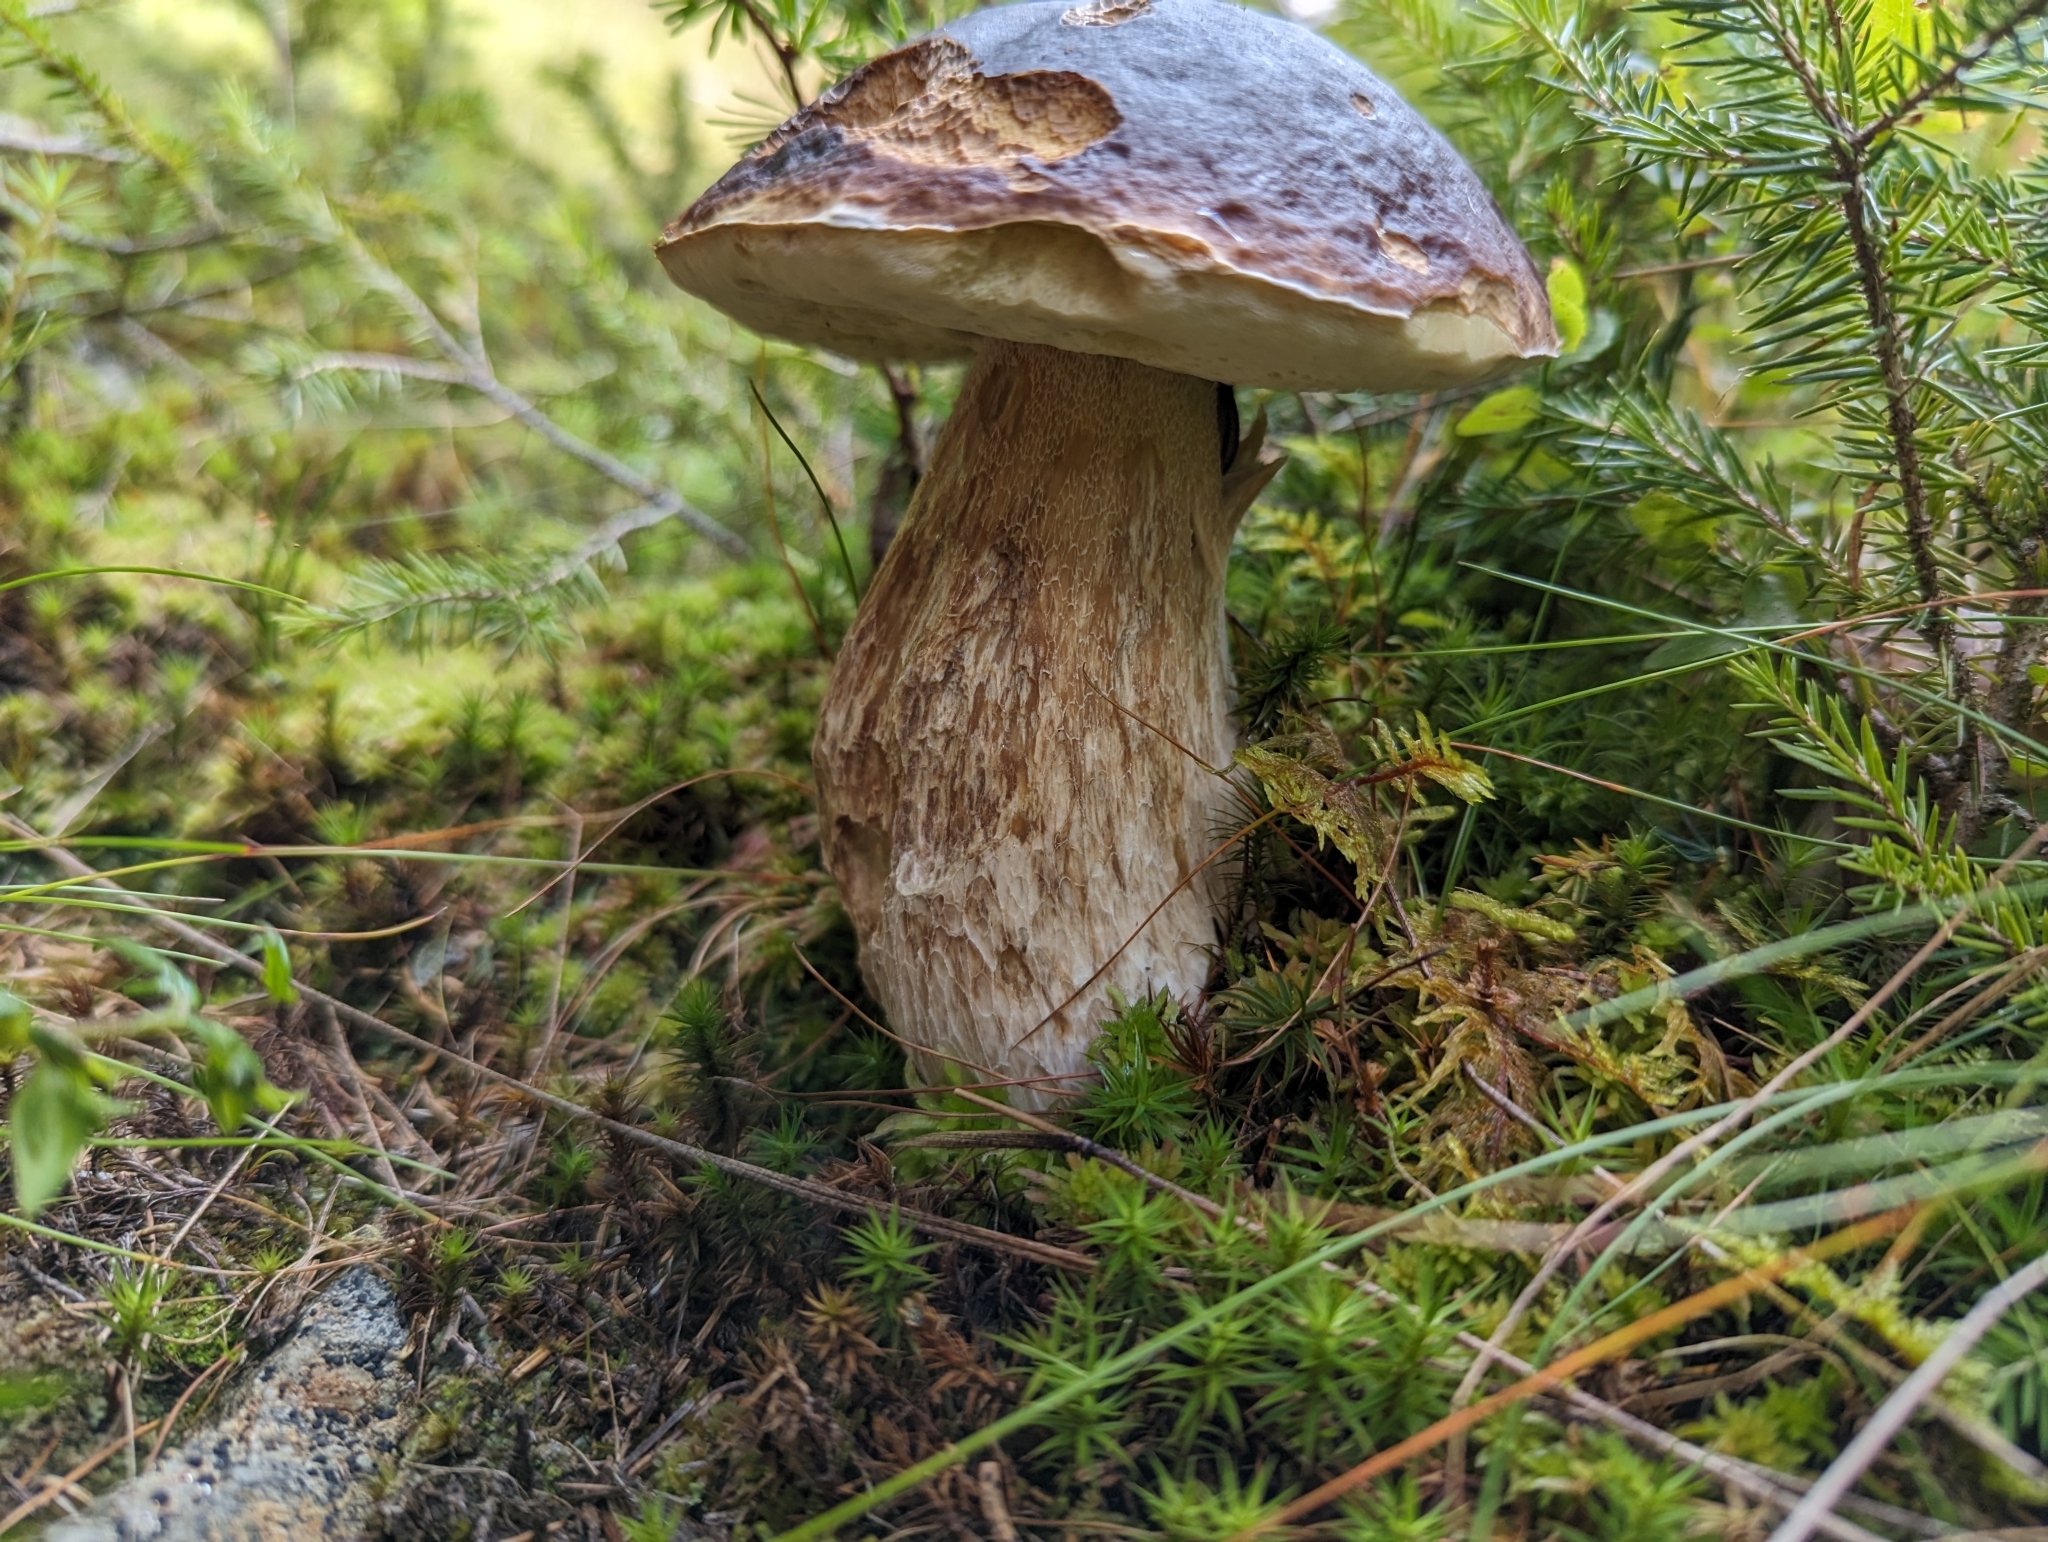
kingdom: Fungi
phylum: Basidiomycota
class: Agaricomycetes
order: Boletales
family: Boletaceae
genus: Boletus
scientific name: Boletus edulis
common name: Cep
